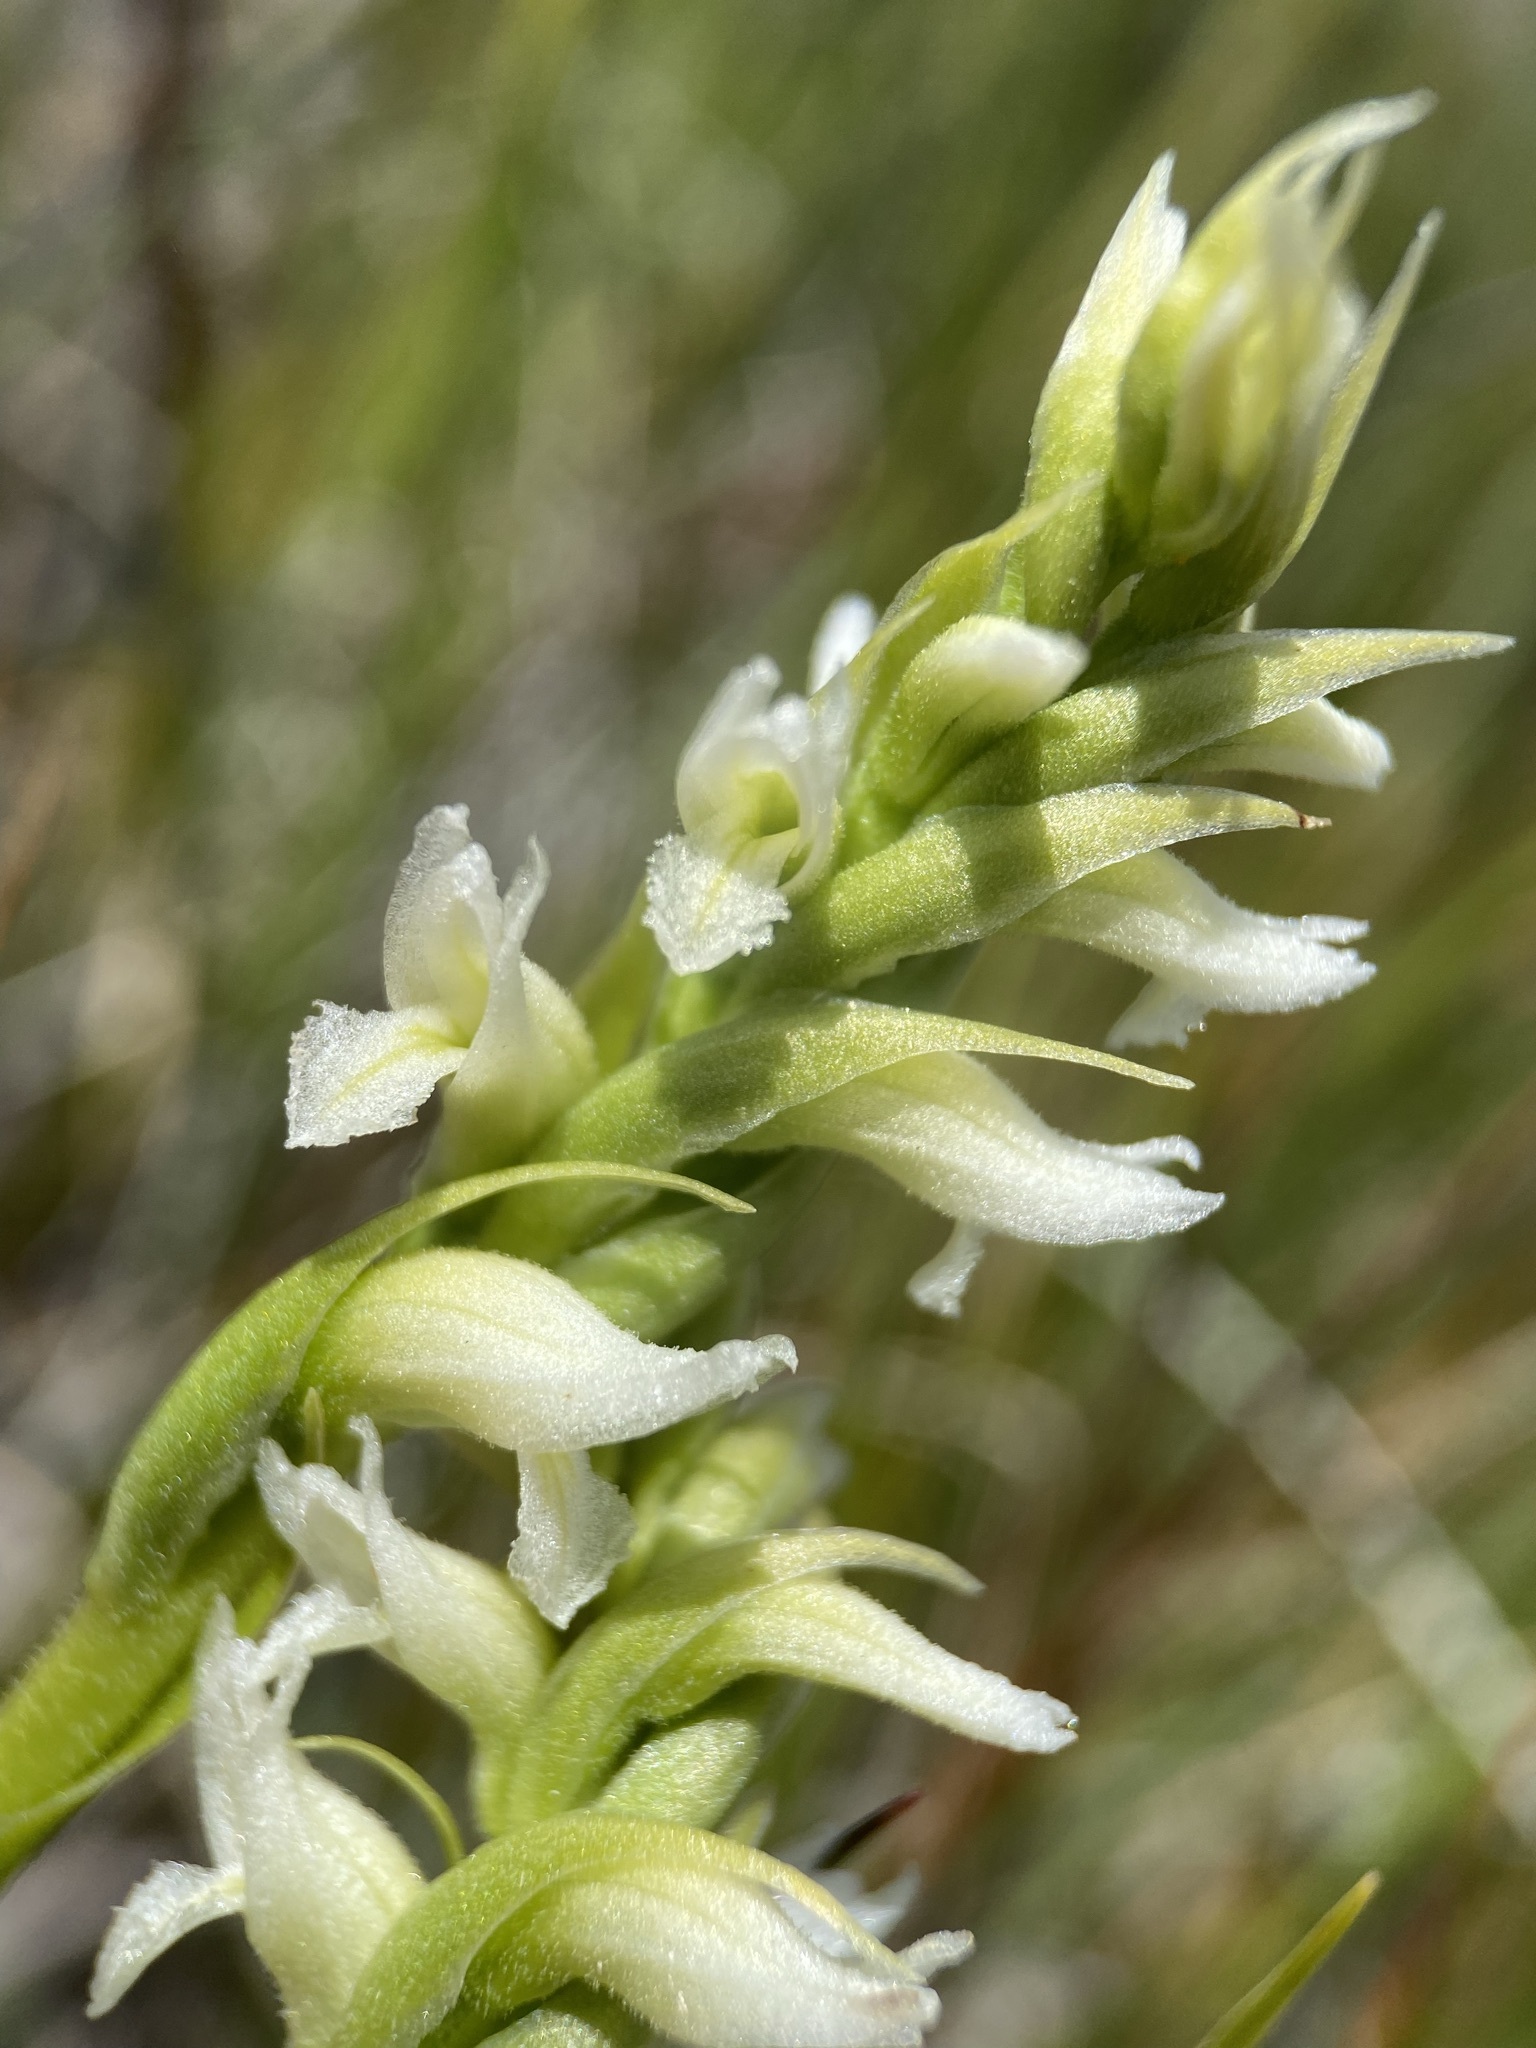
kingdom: Plantae
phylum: Tracheophyta
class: Liliopsida
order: Asparagales
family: Orchidaceae
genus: Spiranthes
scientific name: Spiranthes romanzoffiana
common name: Irish lady's-tresses
